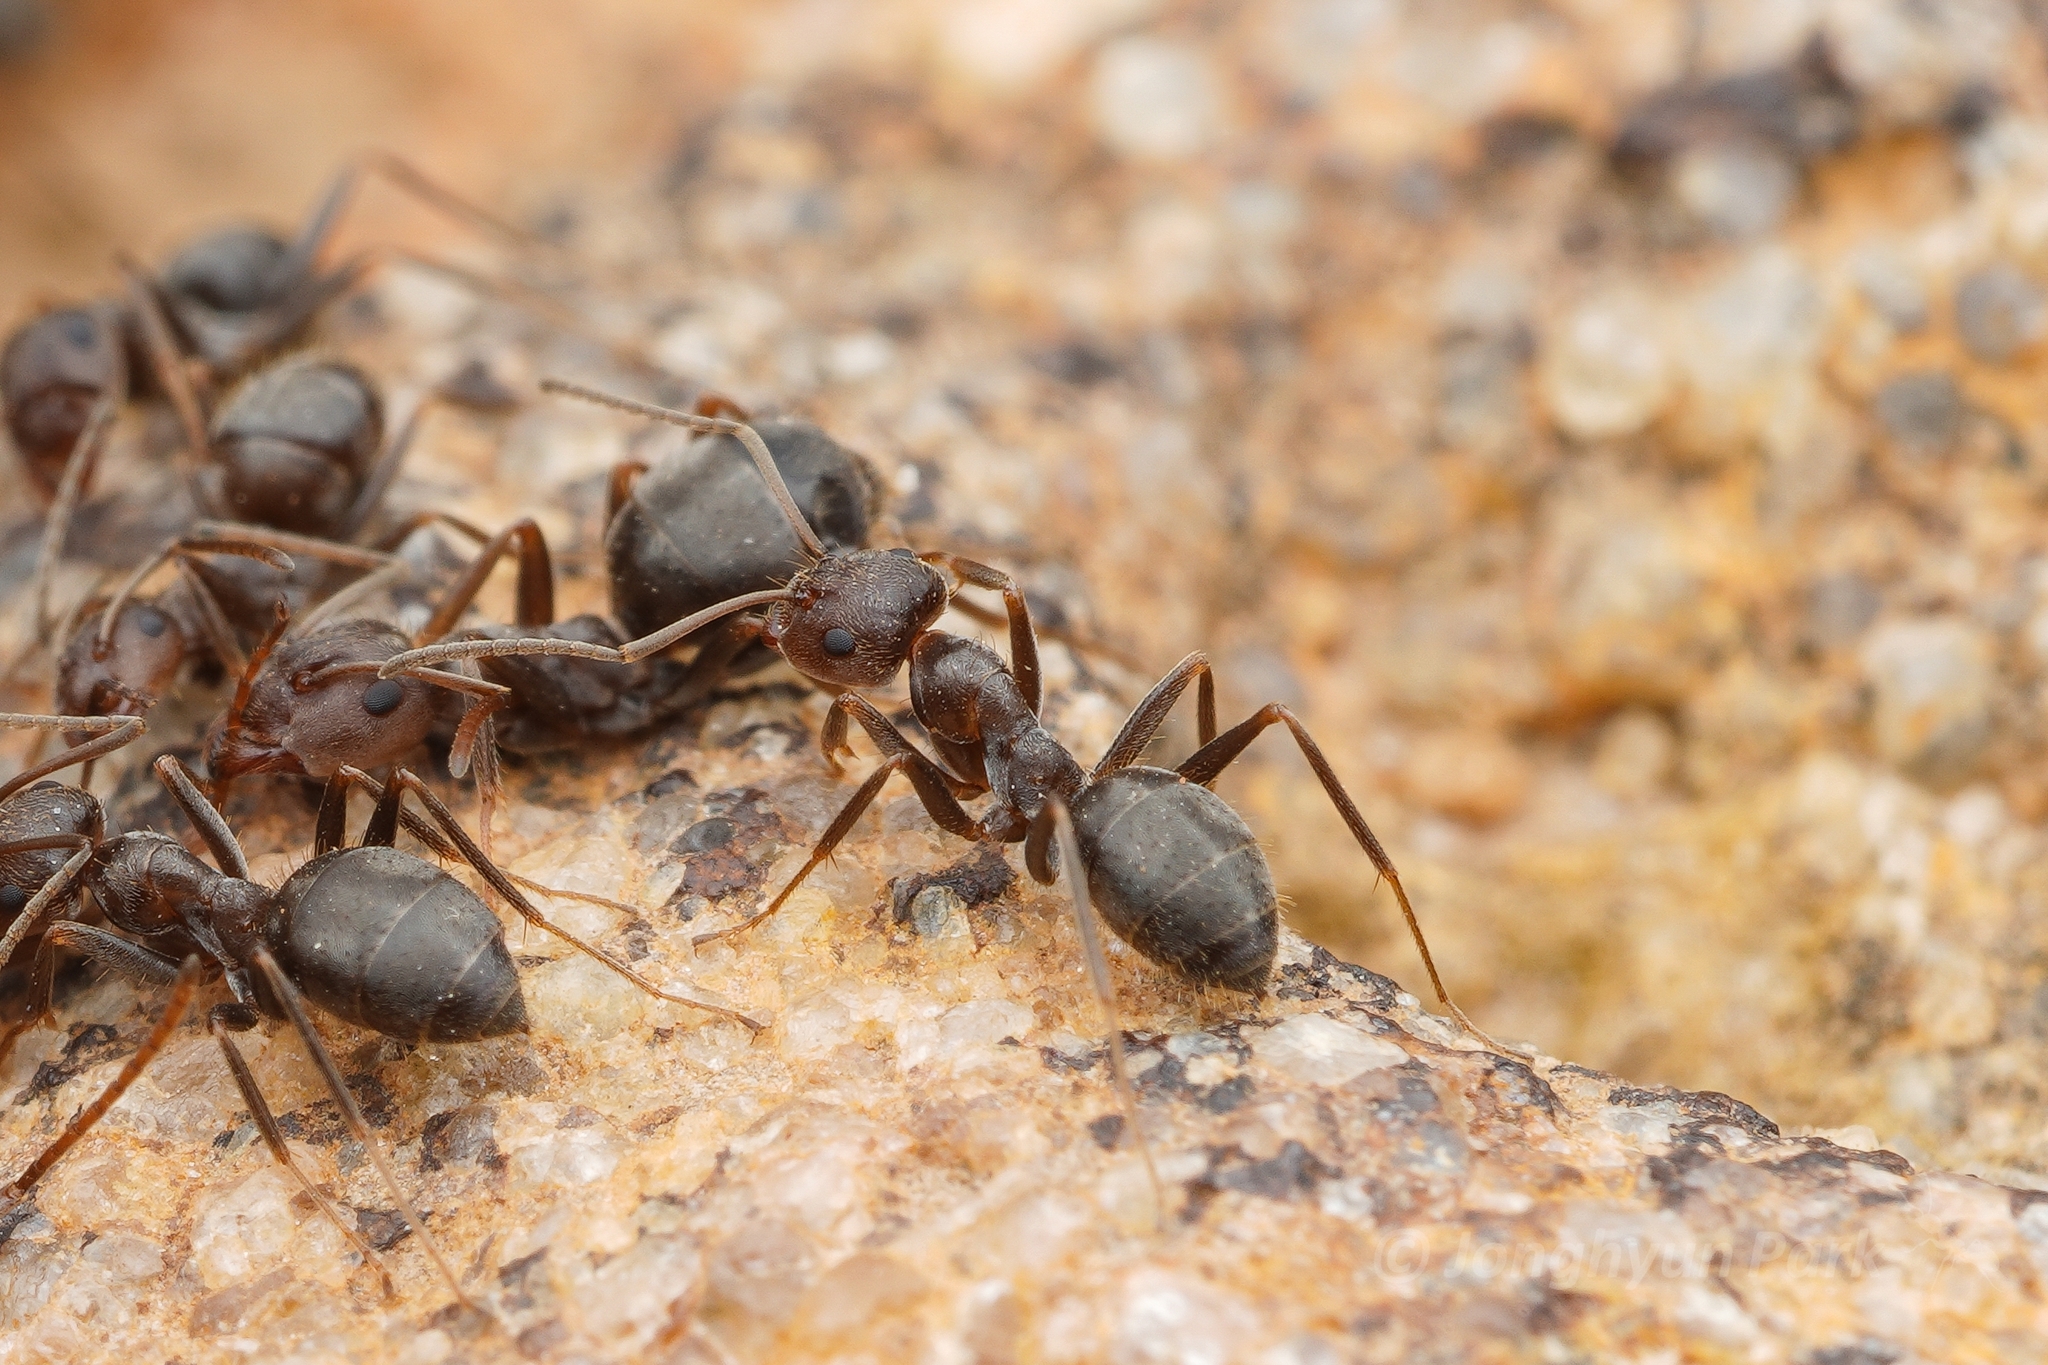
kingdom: Animalia
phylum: Arthropoda
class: Insecta
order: Hymenoptera
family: Formicidae
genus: Anoplolepis
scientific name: Anoplolepis fallax
